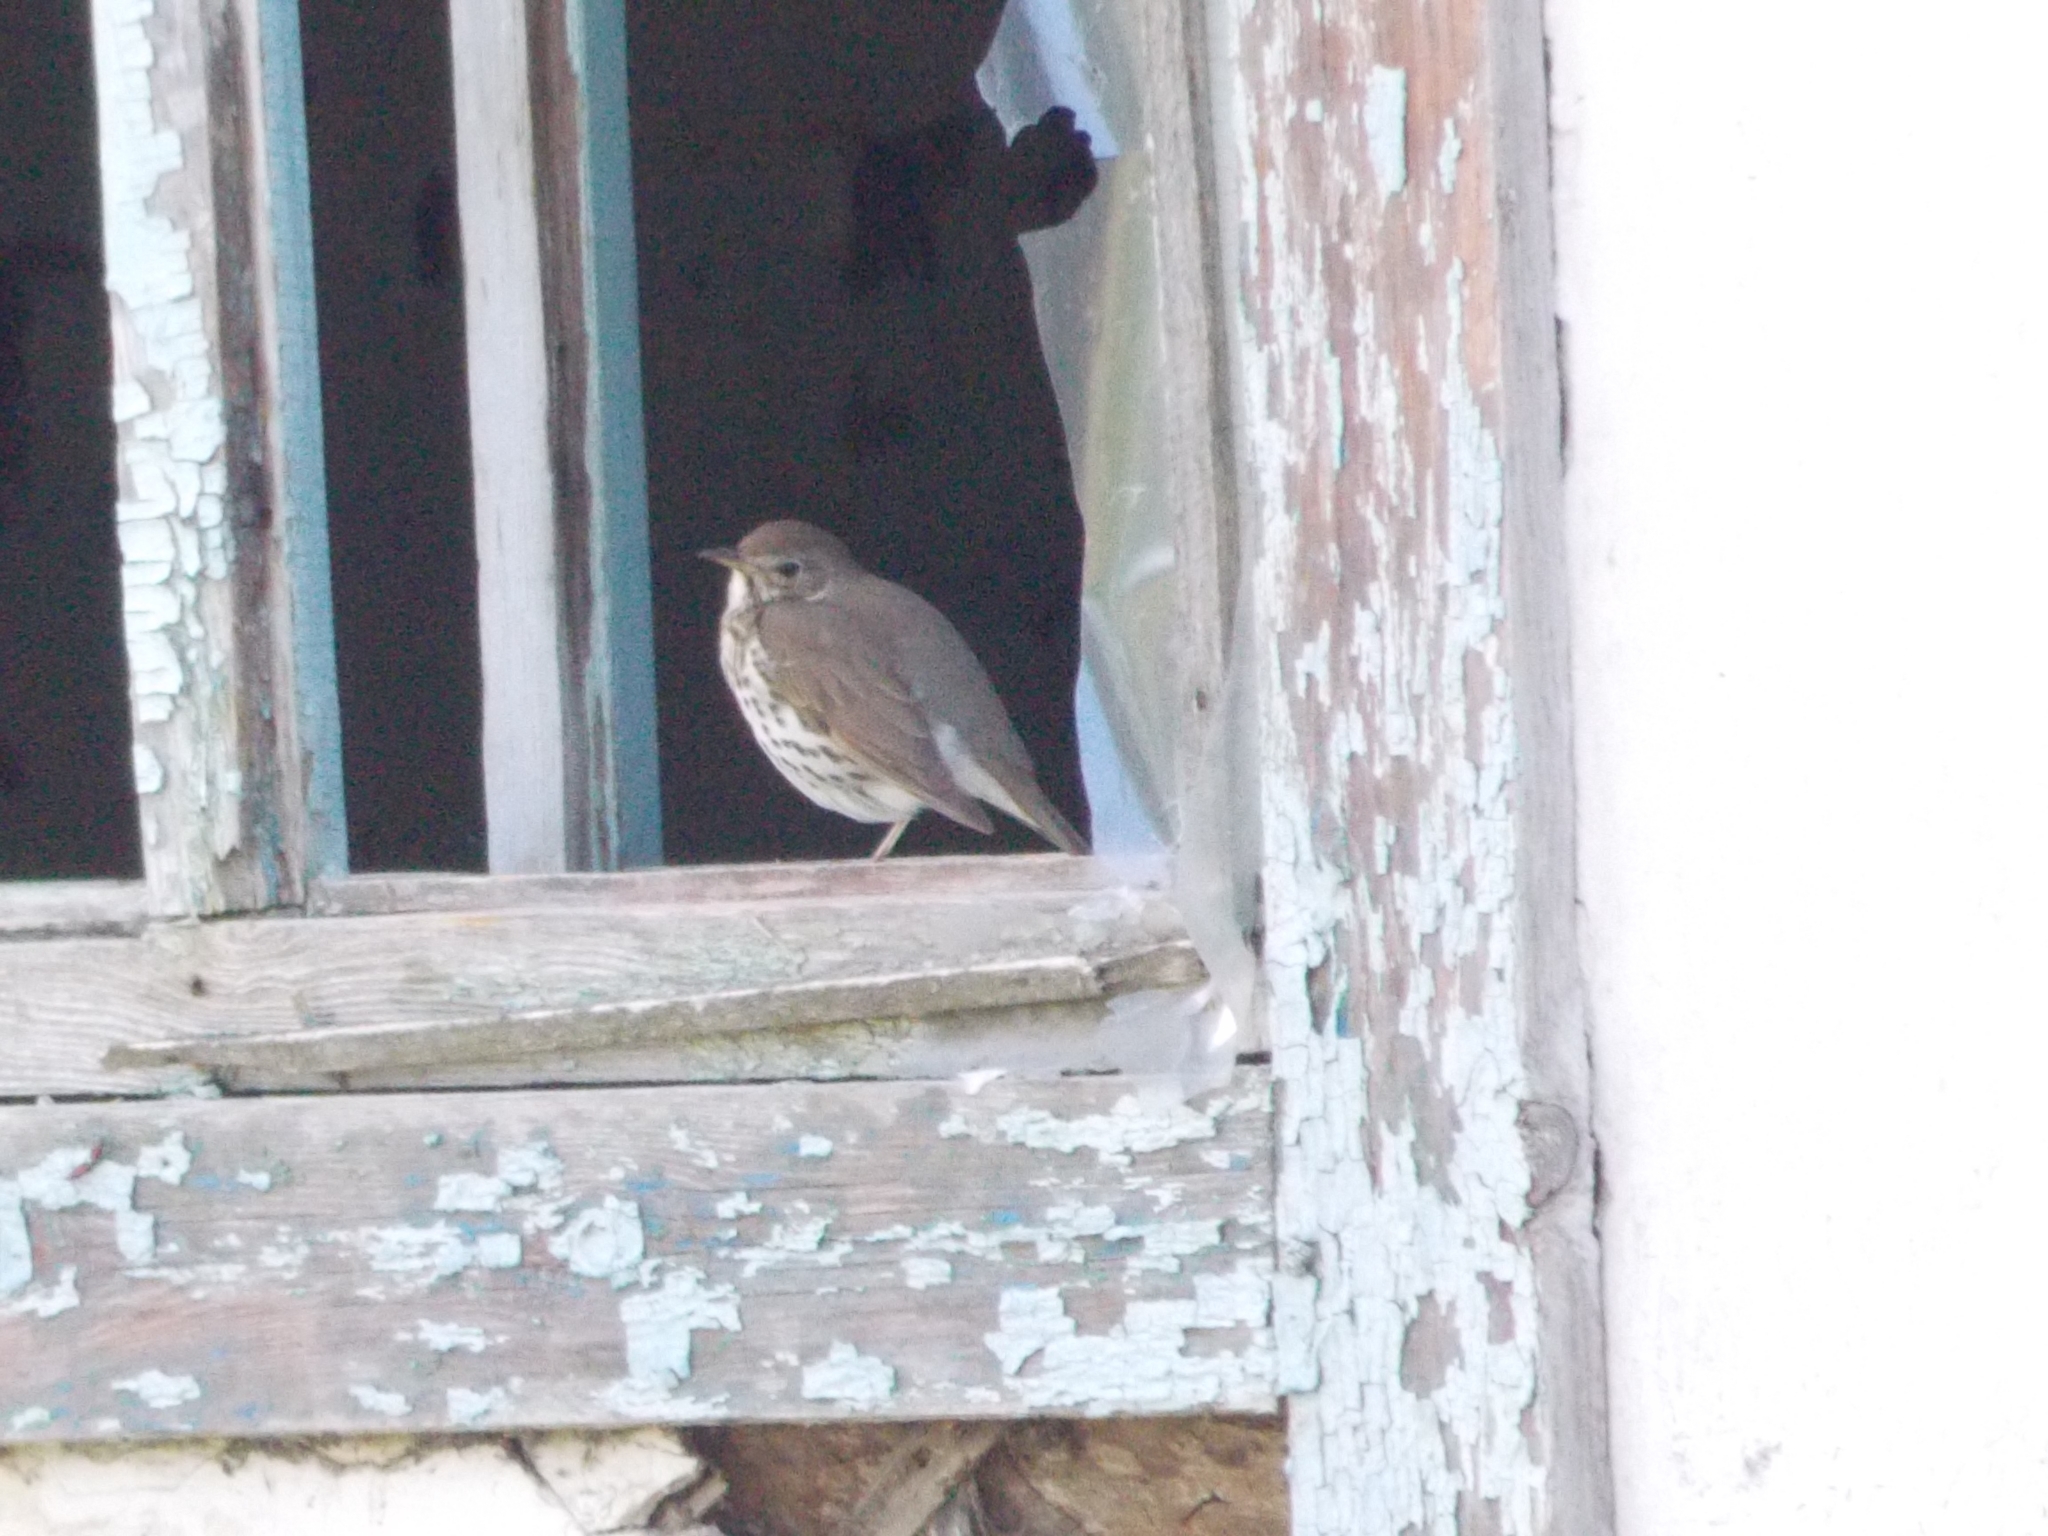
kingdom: Animalia
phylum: Chordata
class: Aves
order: Passeriformes
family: Turdidae
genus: Turdus
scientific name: Turdus philomelos
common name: Song thrush
